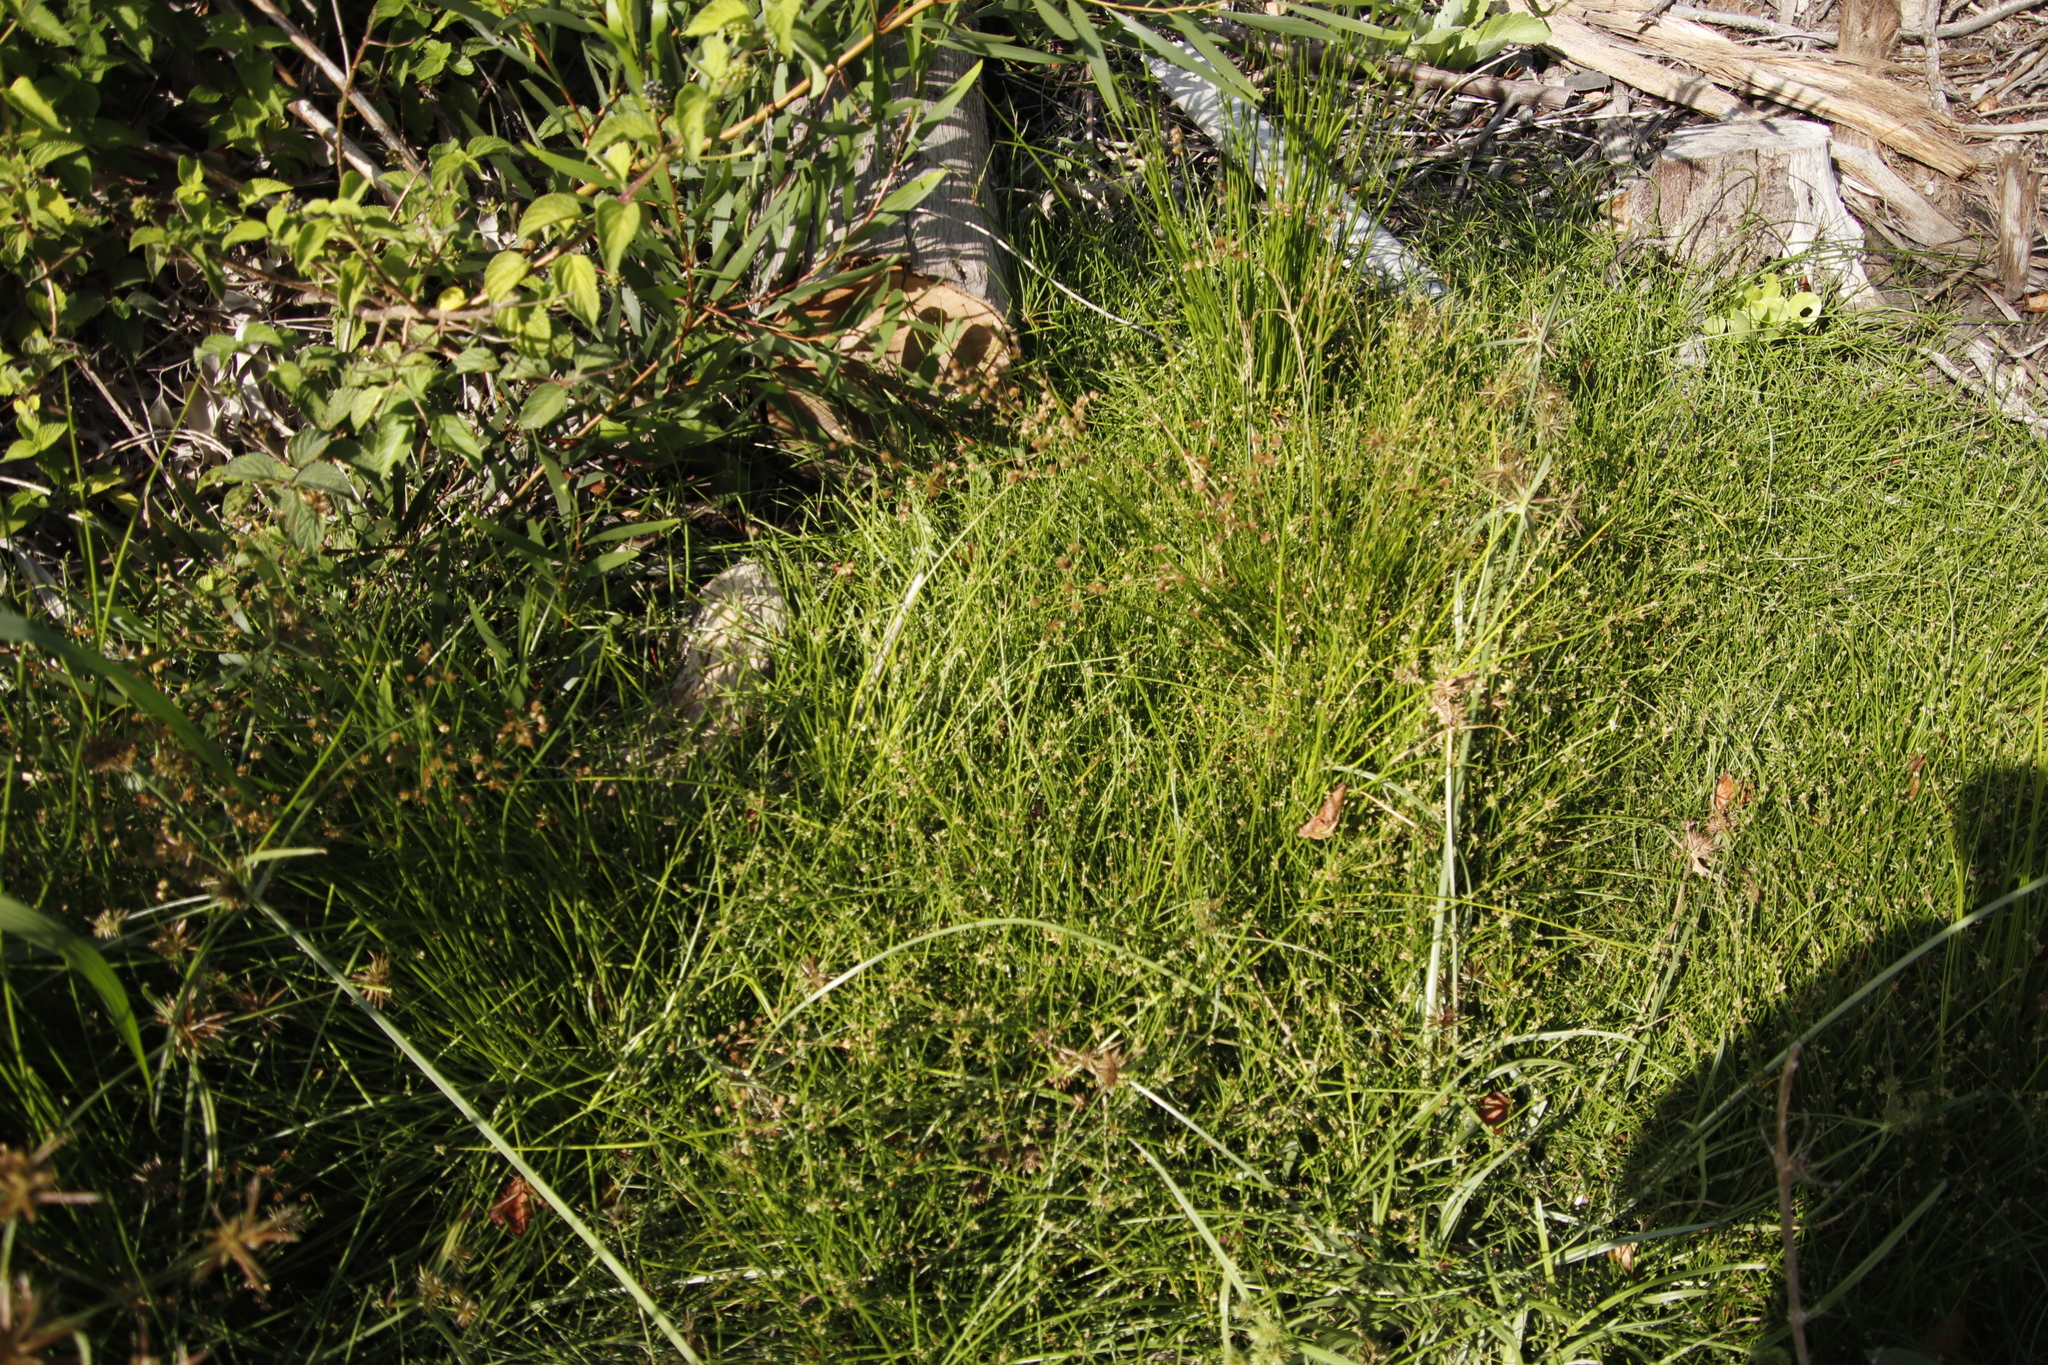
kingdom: Plantae
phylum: Tracheophyta
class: Liliopsida
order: Poales
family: Cyperaceae
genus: Isolepis
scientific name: Isolepis prolifera
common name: Proliferating bulrush
